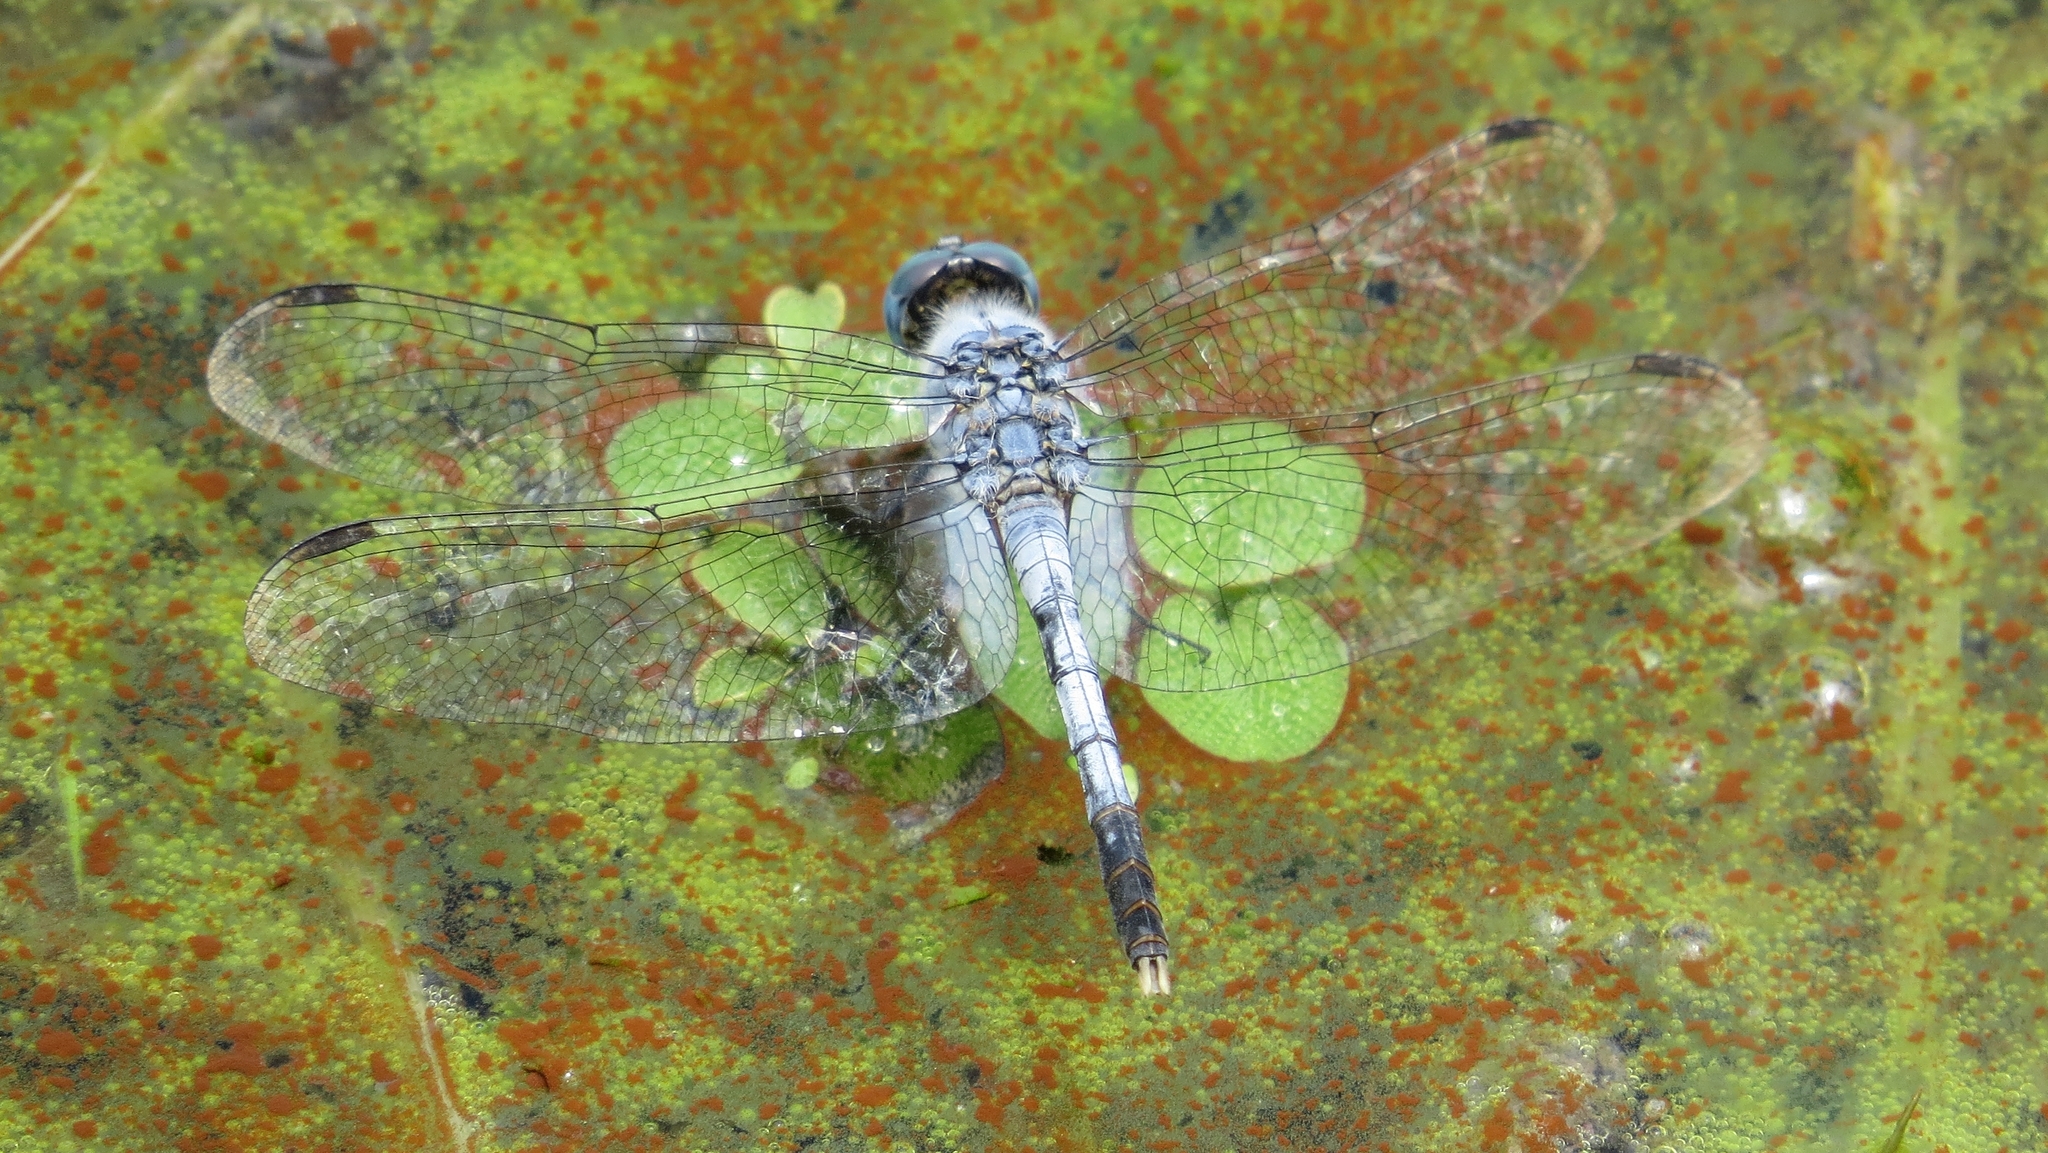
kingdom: Animalia
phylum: Arthropoda
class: Insecta
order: Odonata
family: Libellulidae
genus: Diplacodes
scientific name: Diplacodes trivialis
